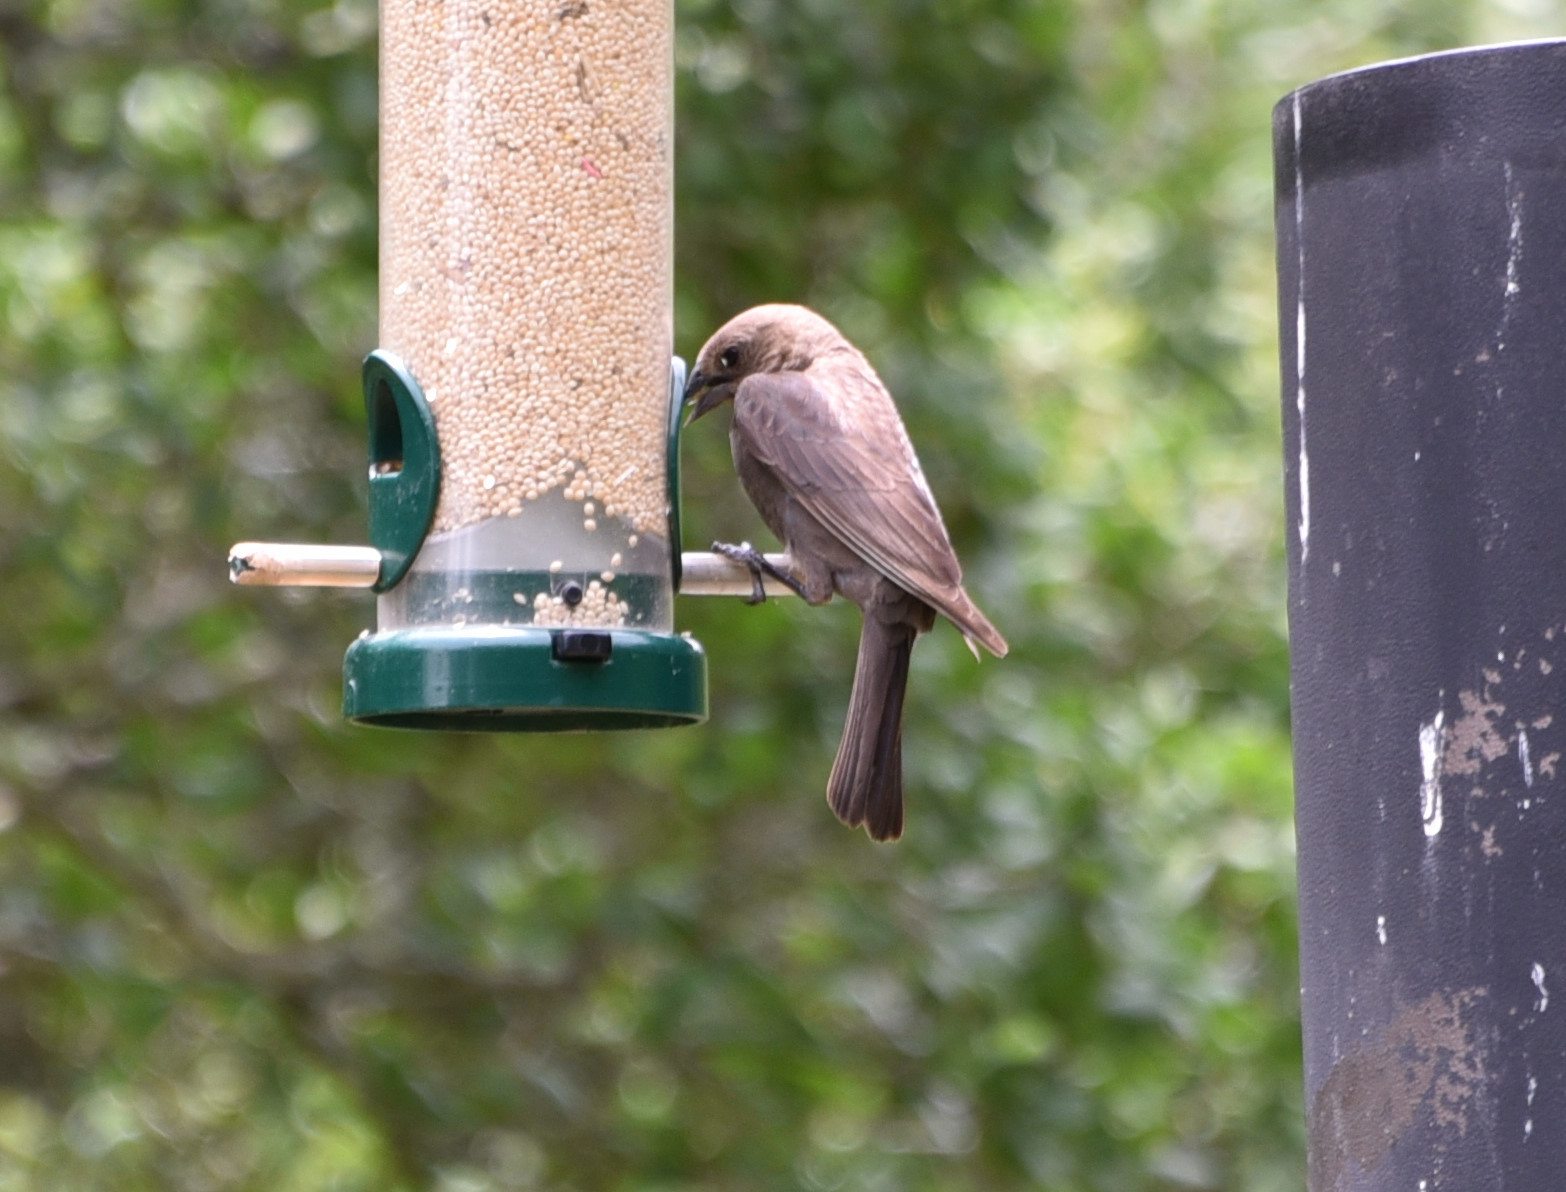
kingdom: Animalia
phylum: Chordata
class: Aves
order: Passeriformes
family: Icteridae
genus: Molothrus
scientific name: Molothrus ater
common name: Brown-headed cowbird
